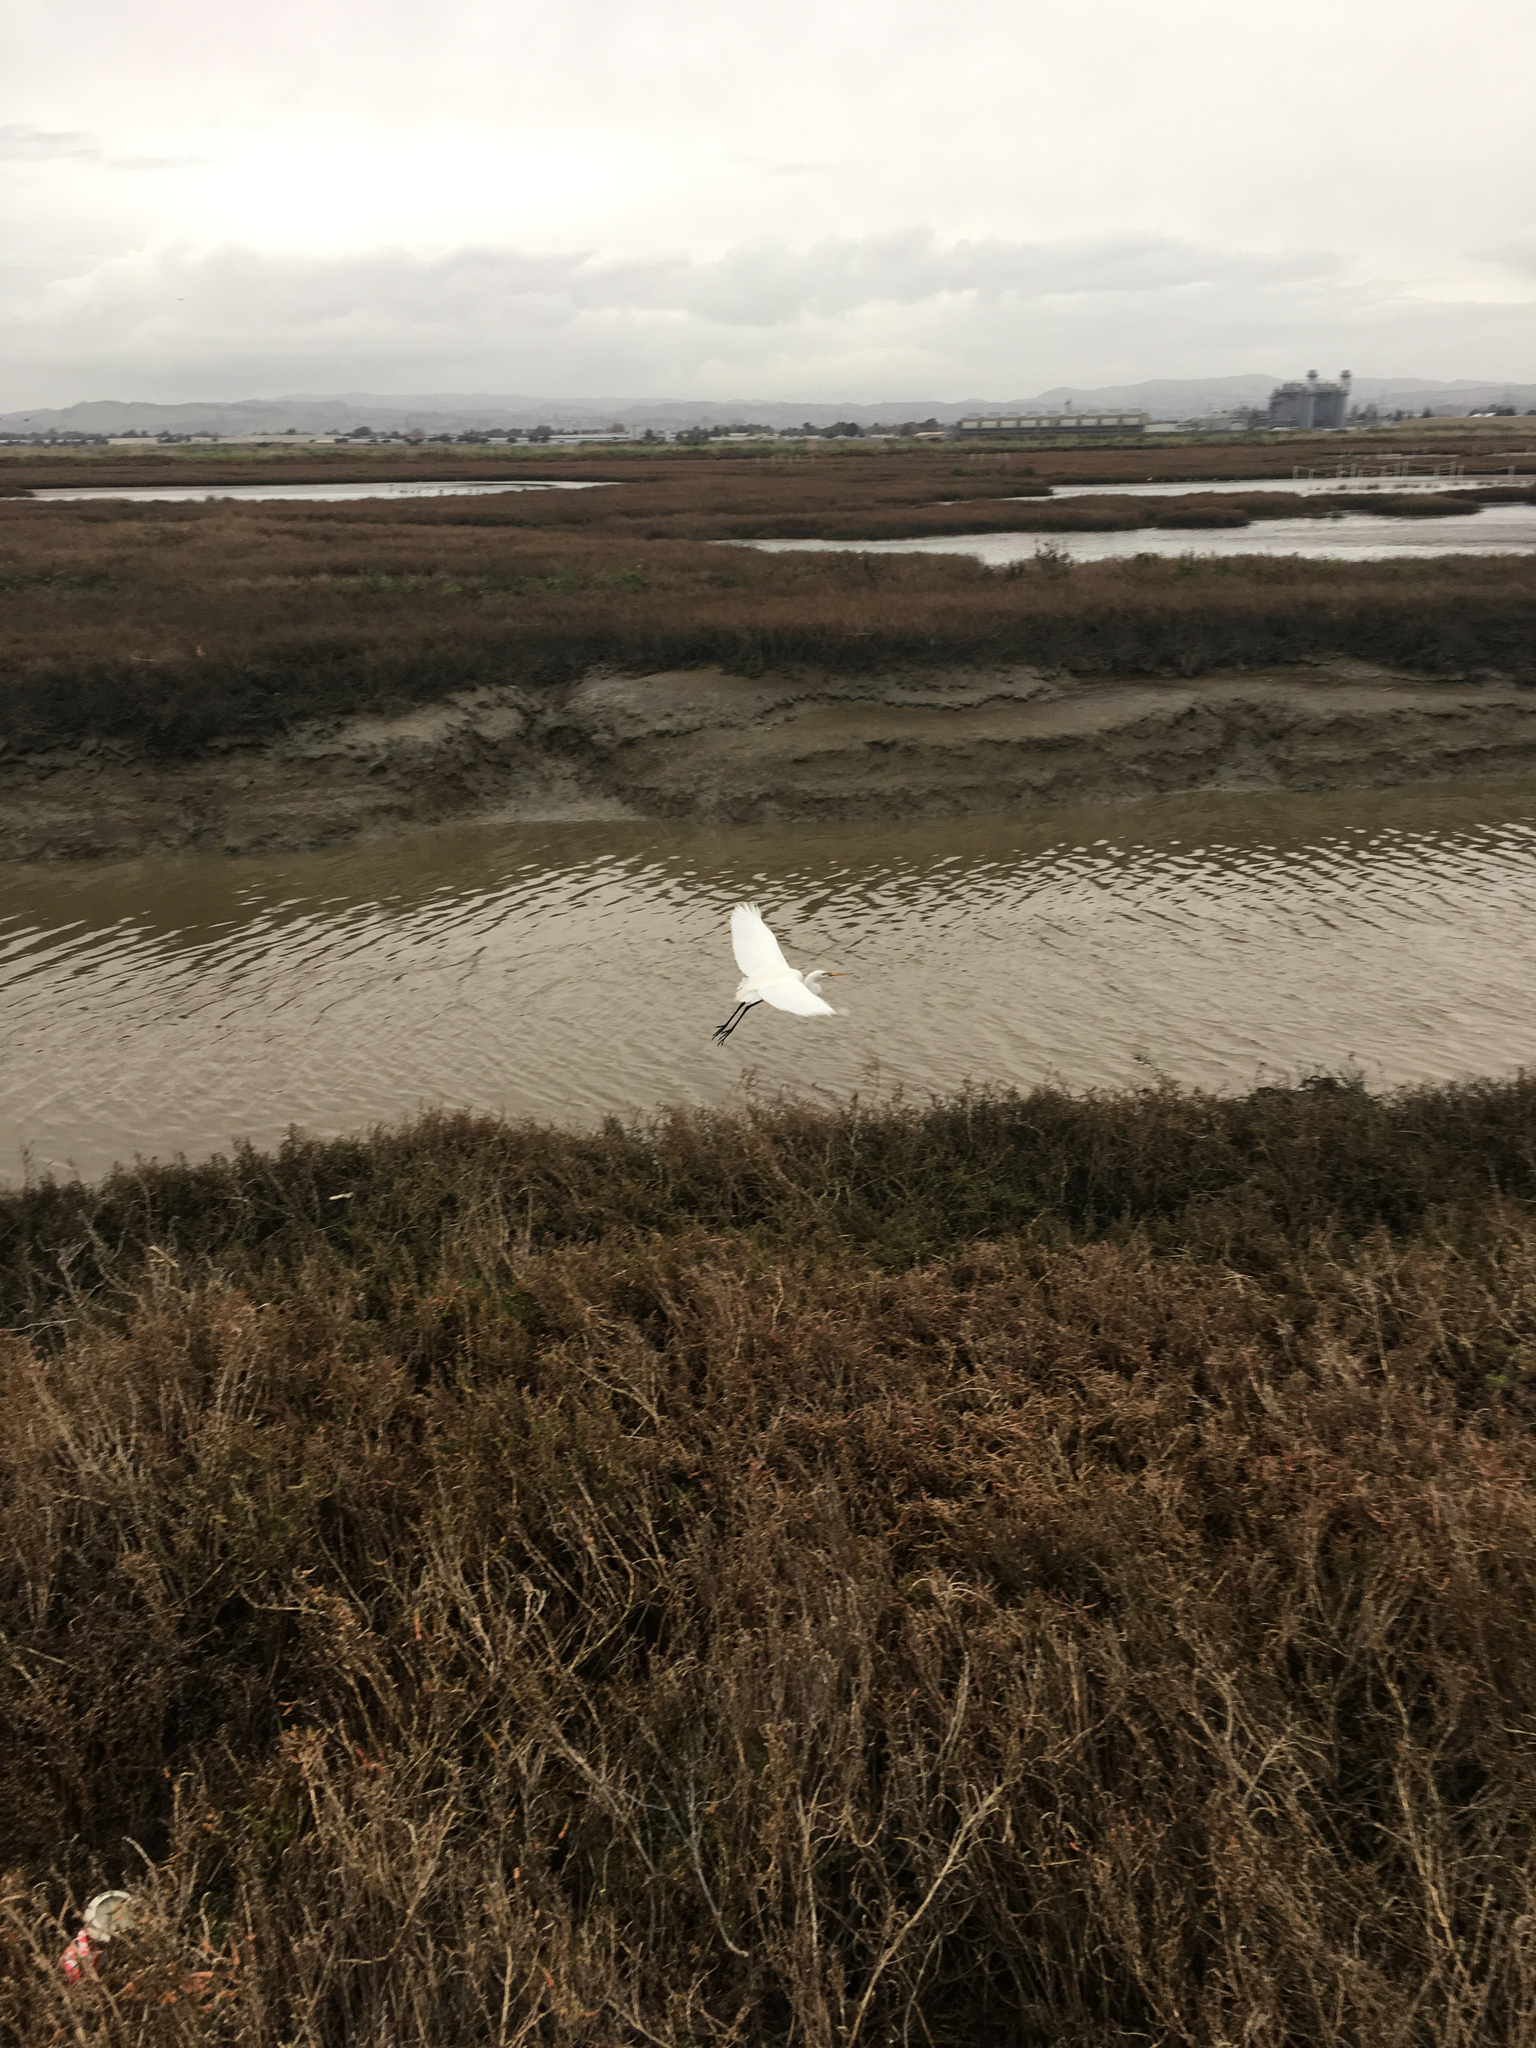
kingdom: Animalia
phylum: Chordata
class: Aves
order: Pelecaniformes
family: Ardeidae
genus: Ardea
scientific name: Ardea alba
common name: Great egret
